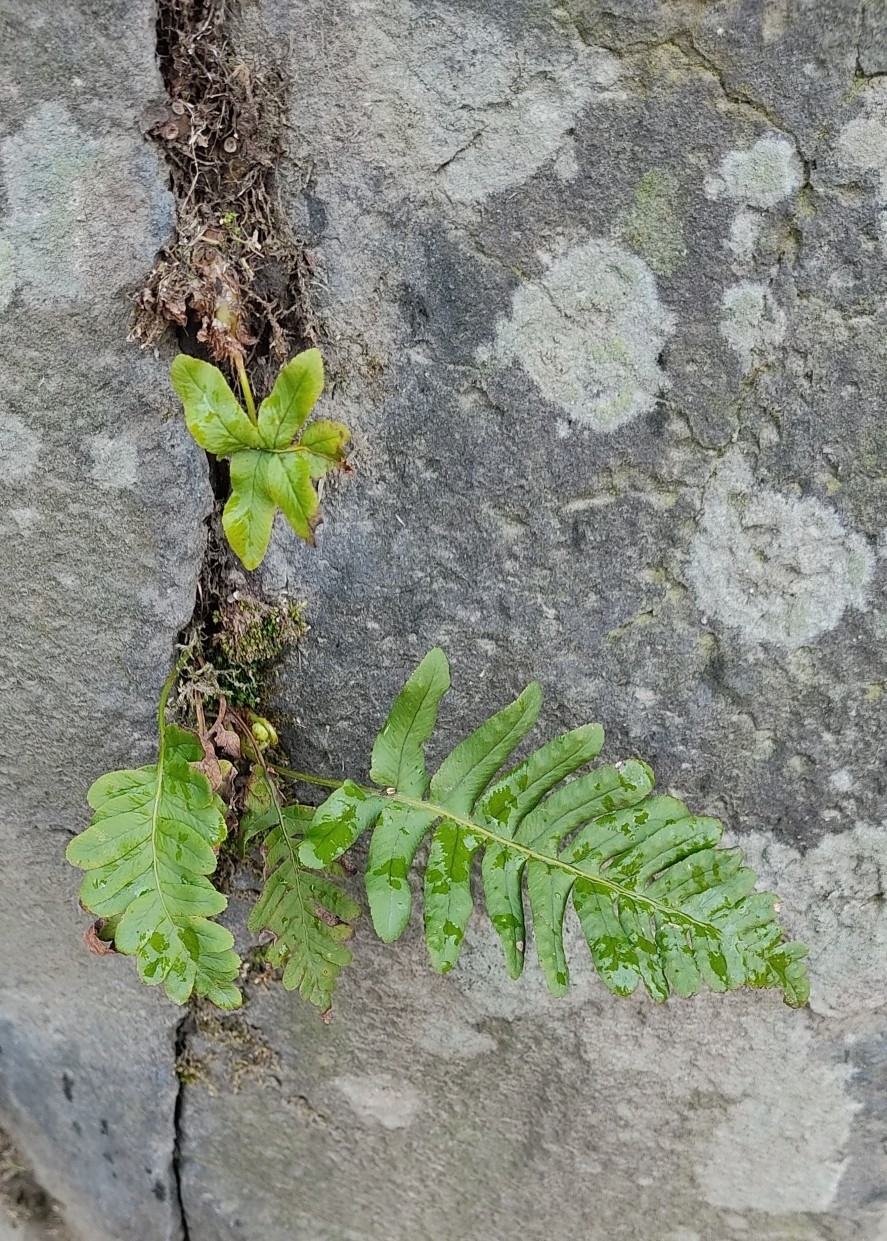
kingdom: Plantae
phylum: Tracheophyta
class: Polypodiopsida
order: Polypodiales
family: Polypodiaceae
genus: Polypodium
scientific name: Polypodium vulgare
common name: Common polypody
